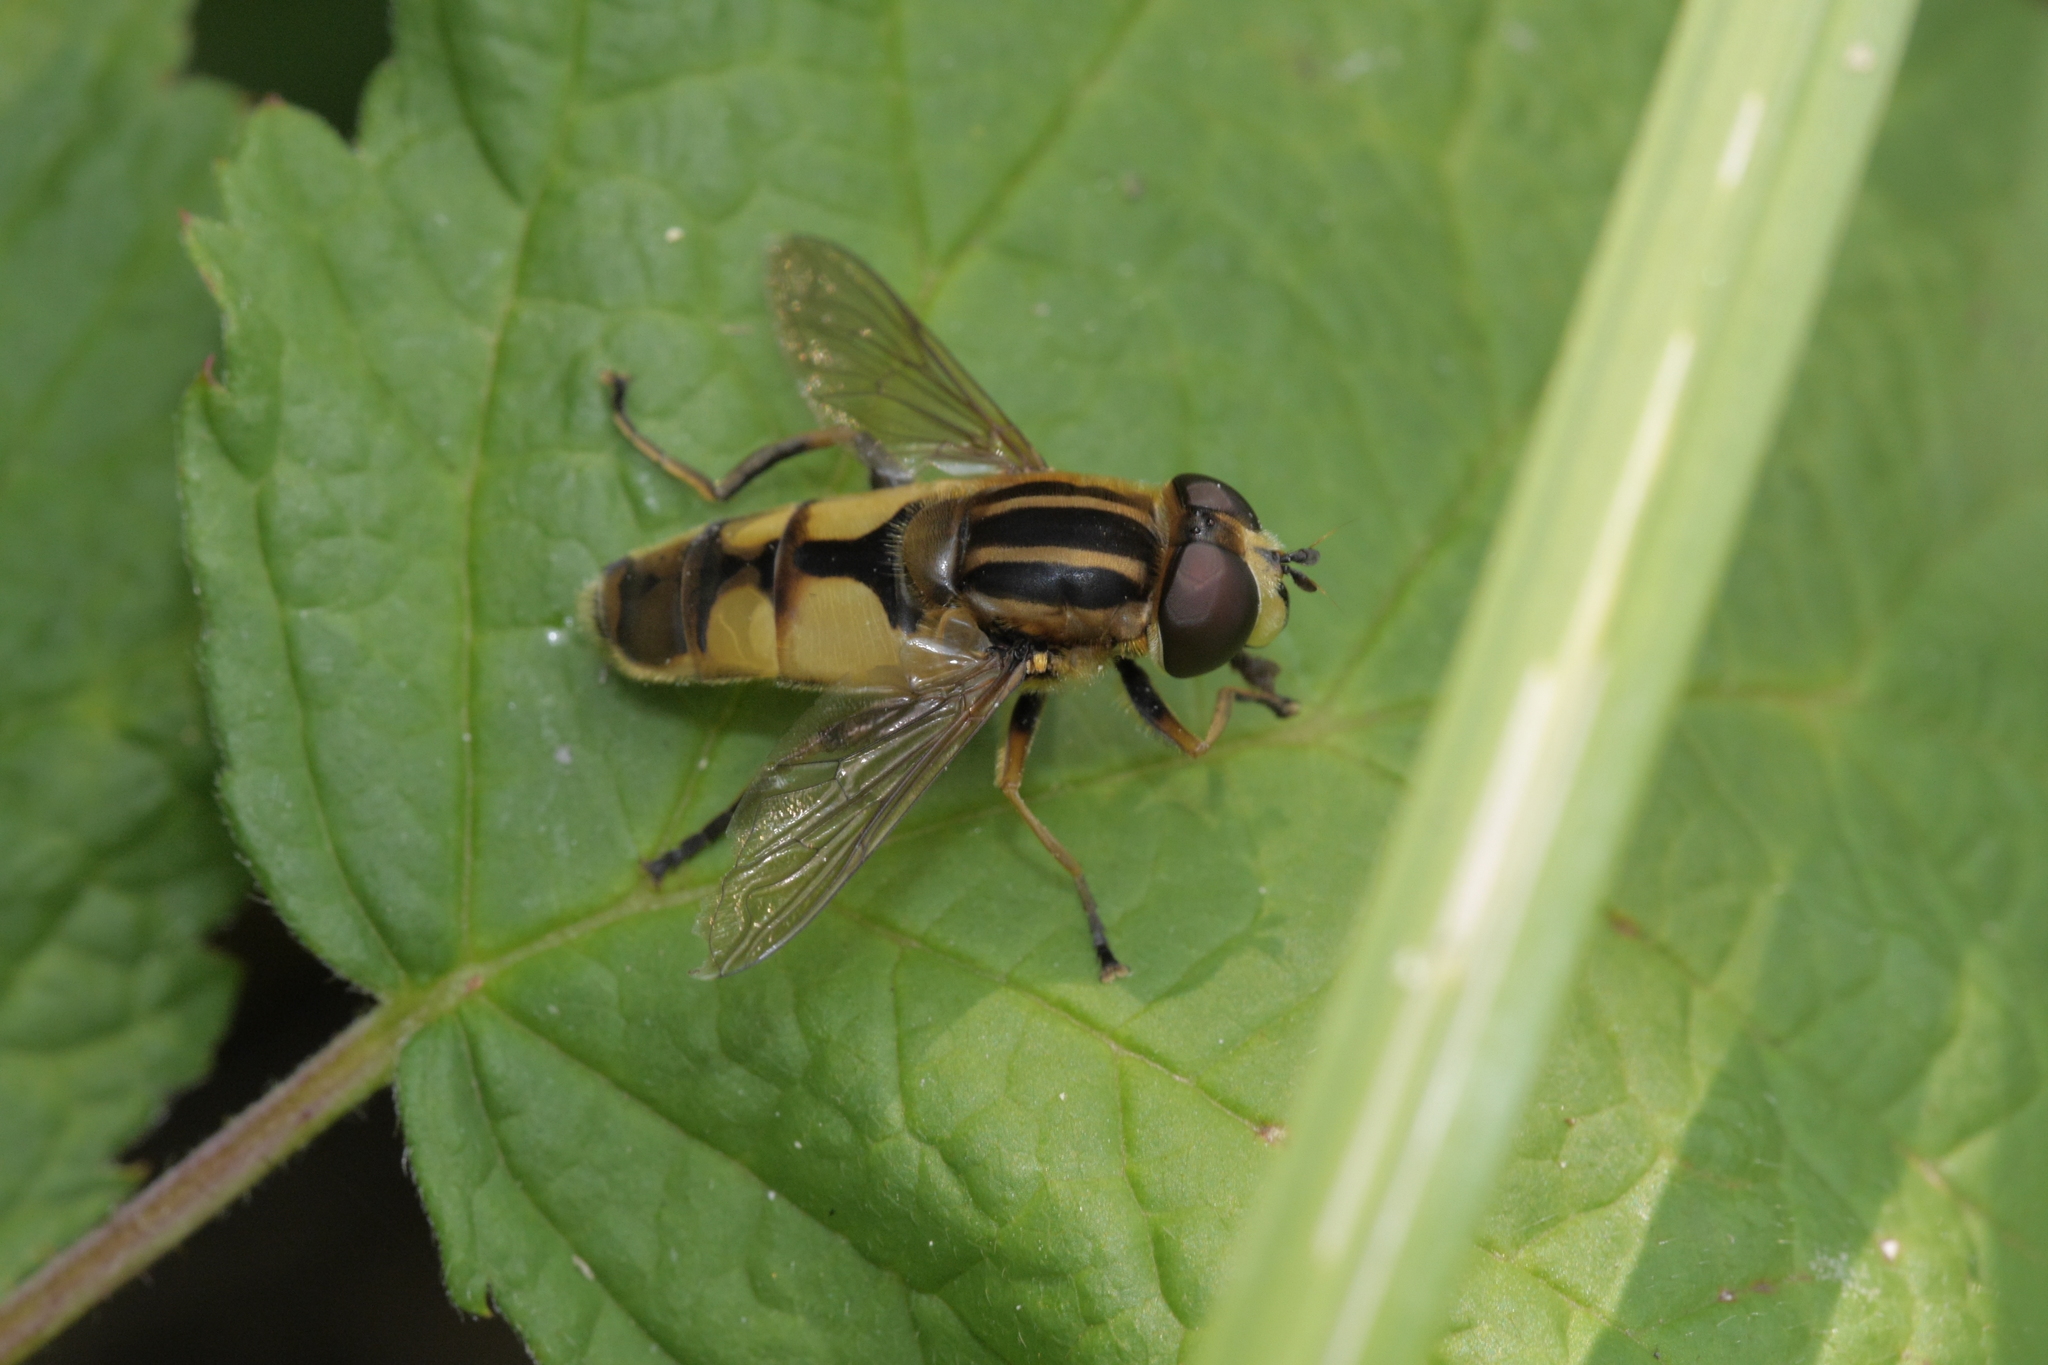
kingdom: Animalia
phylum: Arthropoda
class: Insecta
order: Diptera
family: Syrphidae
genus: Helophilus
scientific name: Helophilus hybridus
